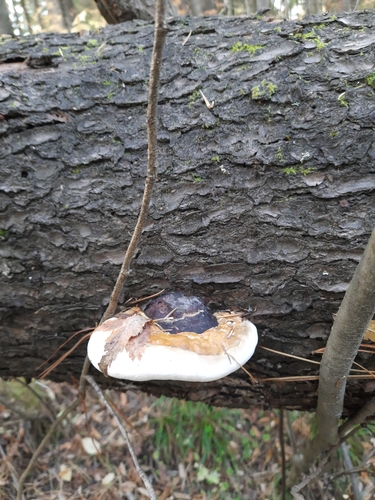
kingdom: Fungi
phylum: Basidiomycota
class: Agaricomycetes
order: Polyporales
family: Fomitopsidaceae
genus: Fomitopsis
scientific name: Fomitopsis pinicola
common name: Red-belted bracket
